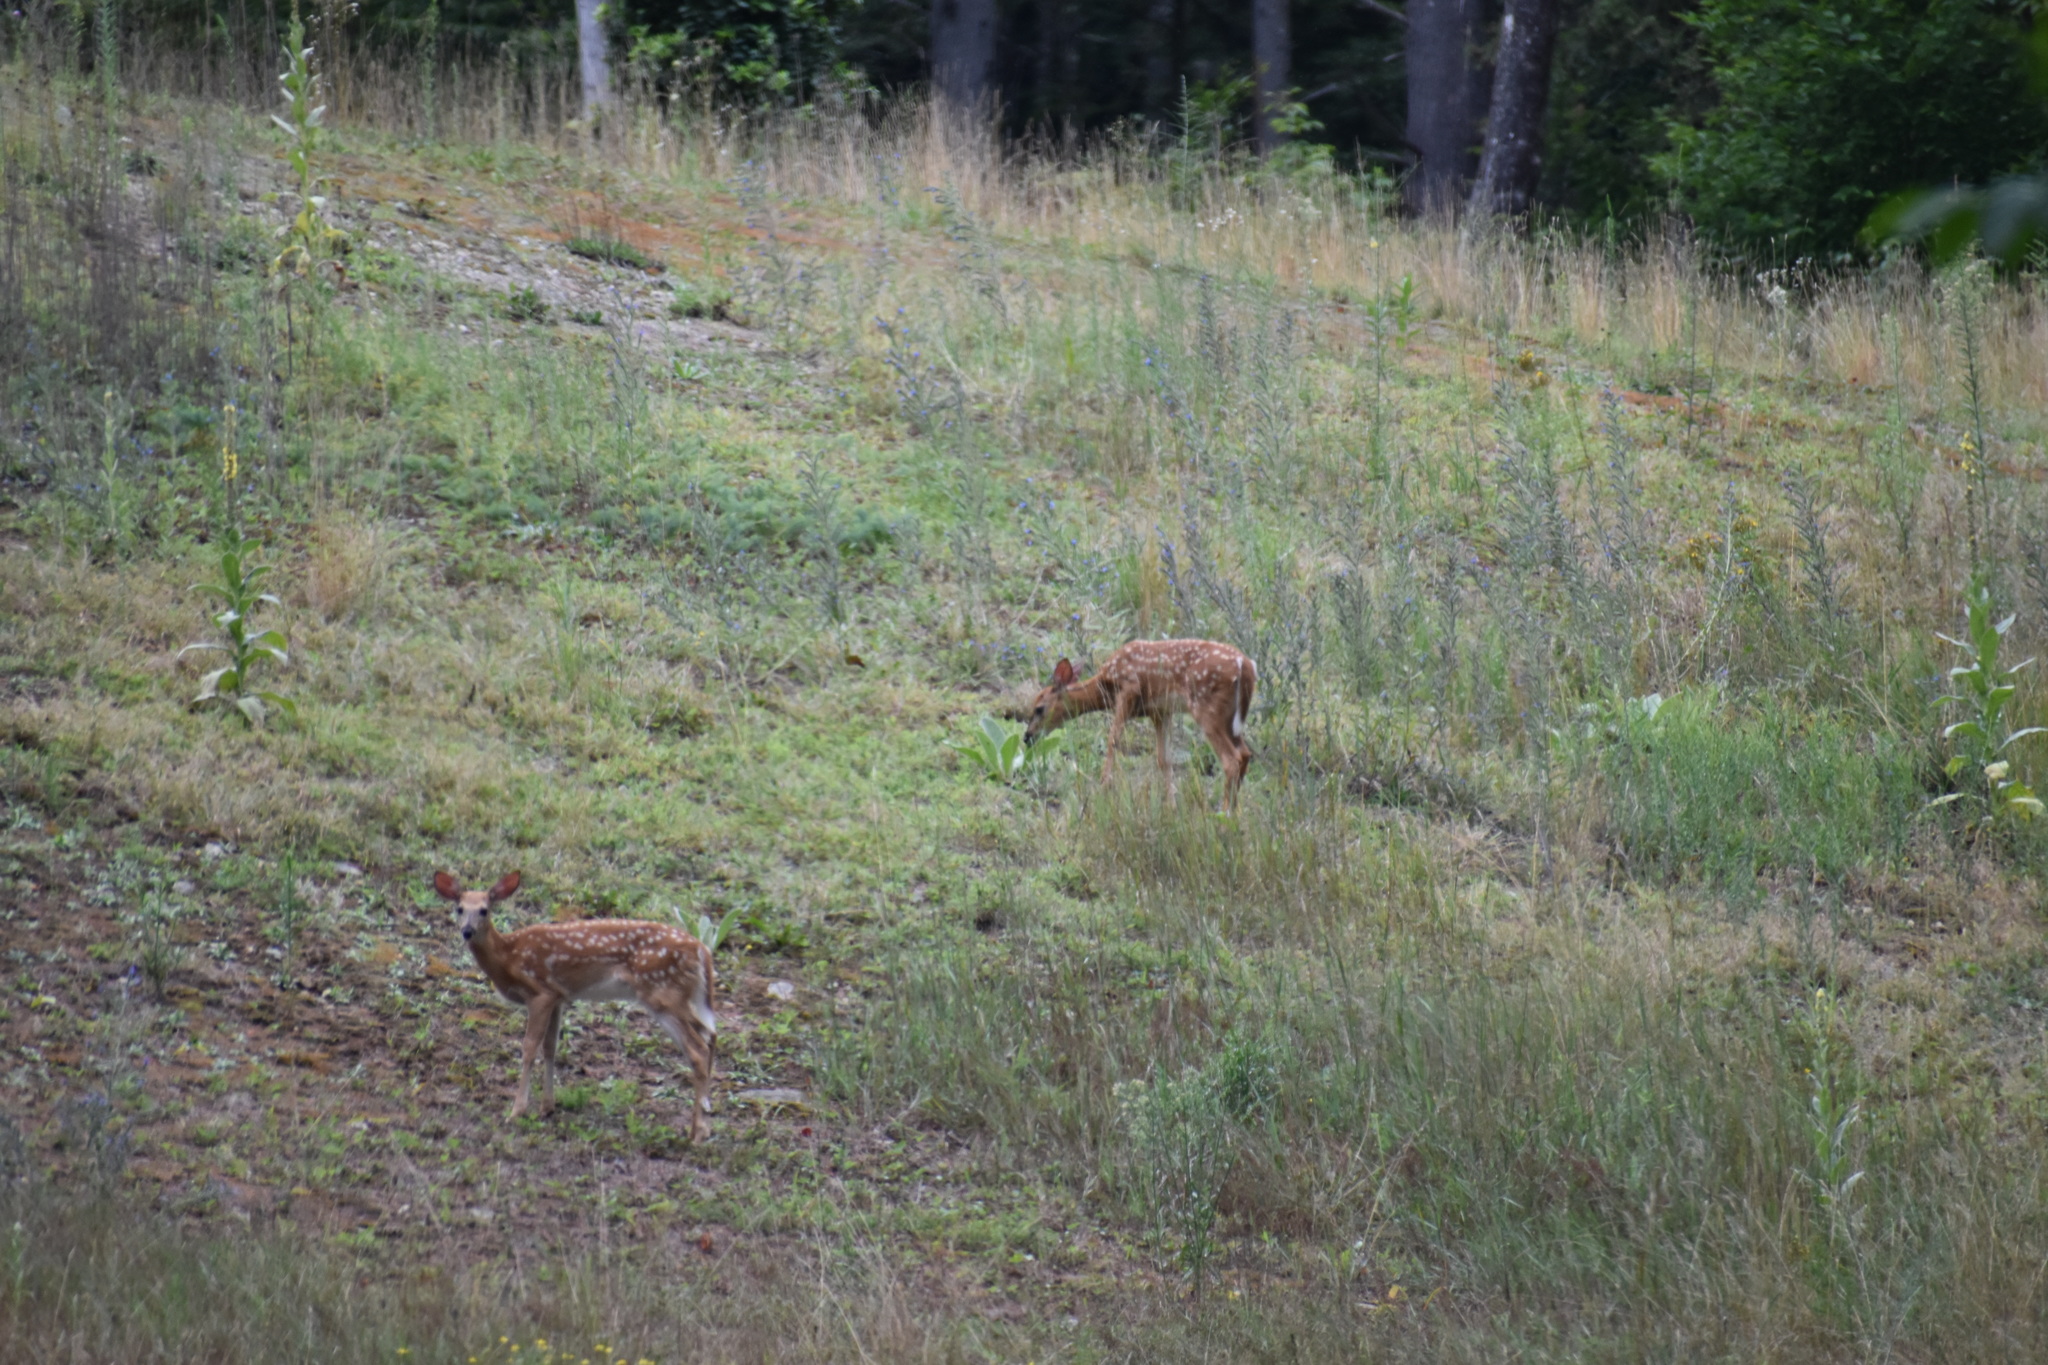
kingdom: Animalia
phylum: Chordata
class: Mammalia
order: Artiodactyla
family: Cervidae
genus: Odocoileus
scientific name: Odocoileus virginianus
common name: White-tailed deer
